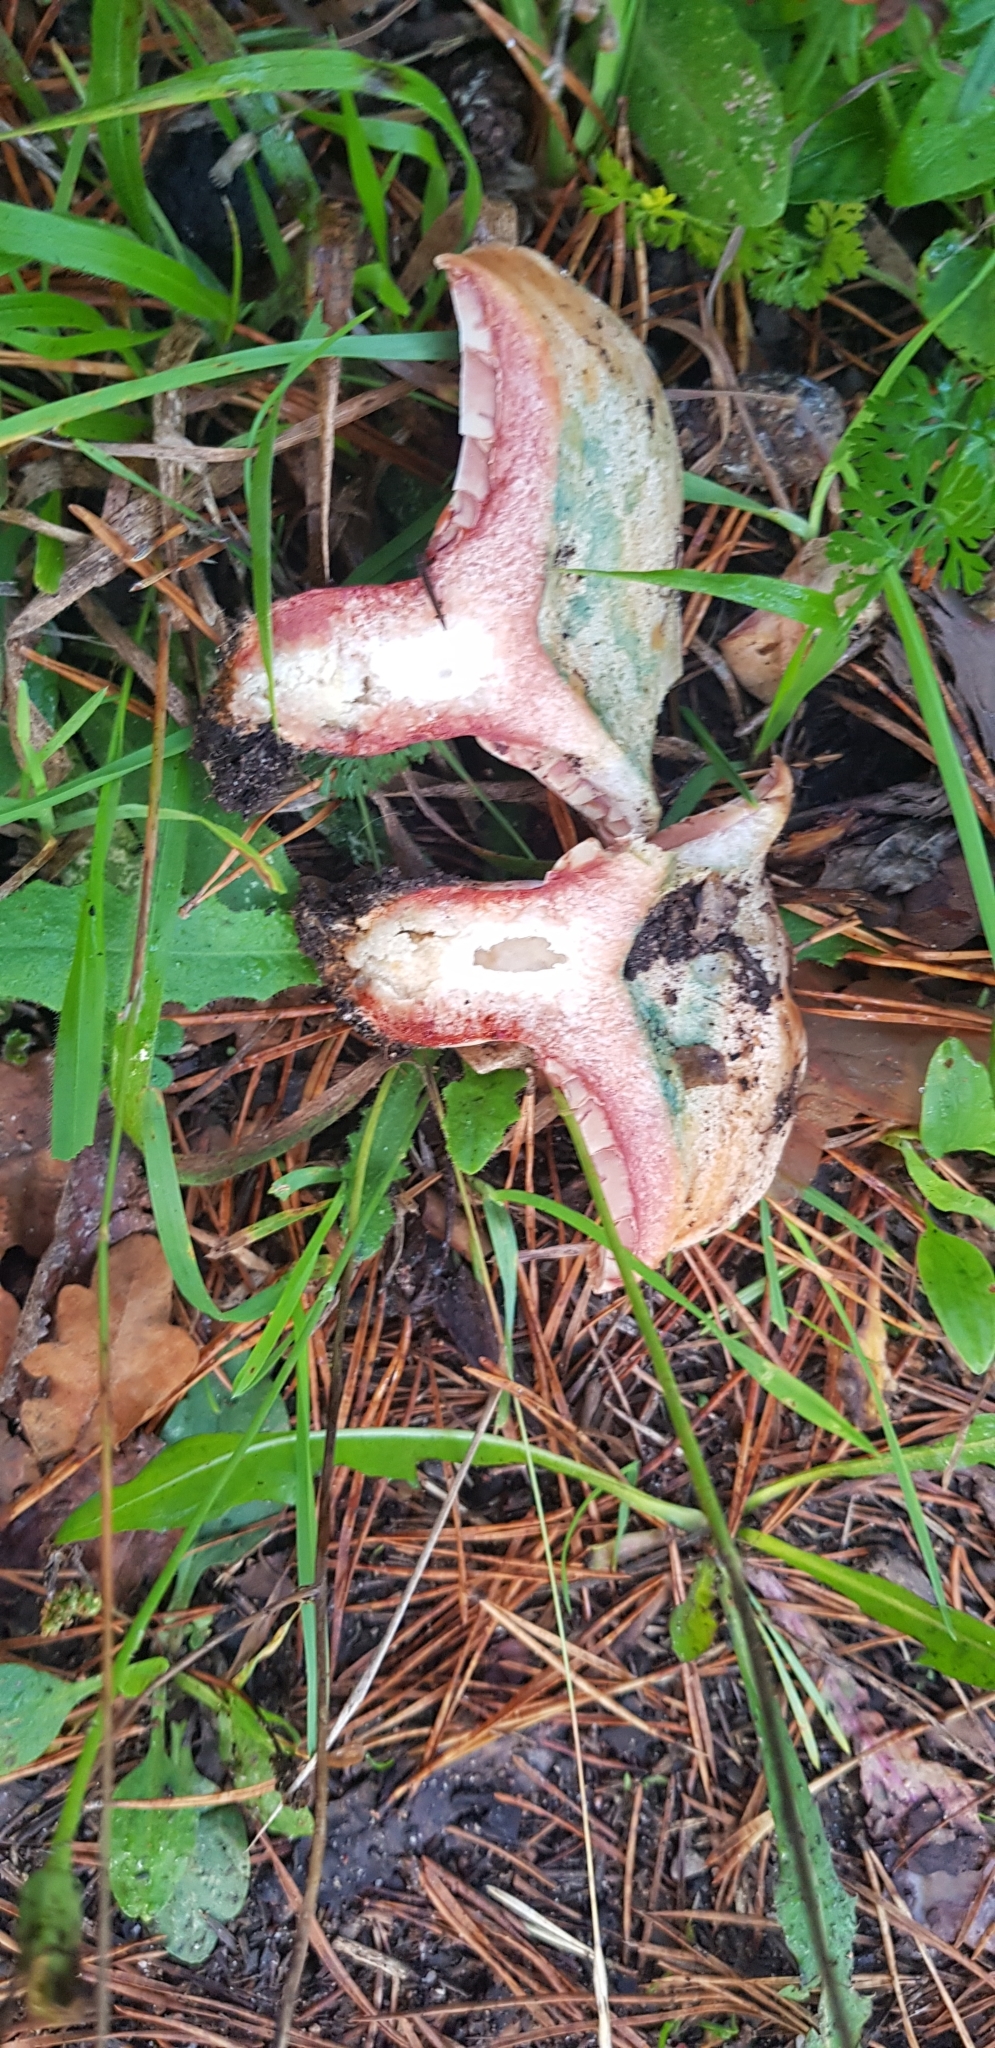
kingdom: Fungi
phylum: Basidiomycota
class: Agaricomycetes
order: Russulales
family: Russulaceae
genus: Lactarius
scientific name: Lactarius sanguifluus
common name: Bloody milkcap
